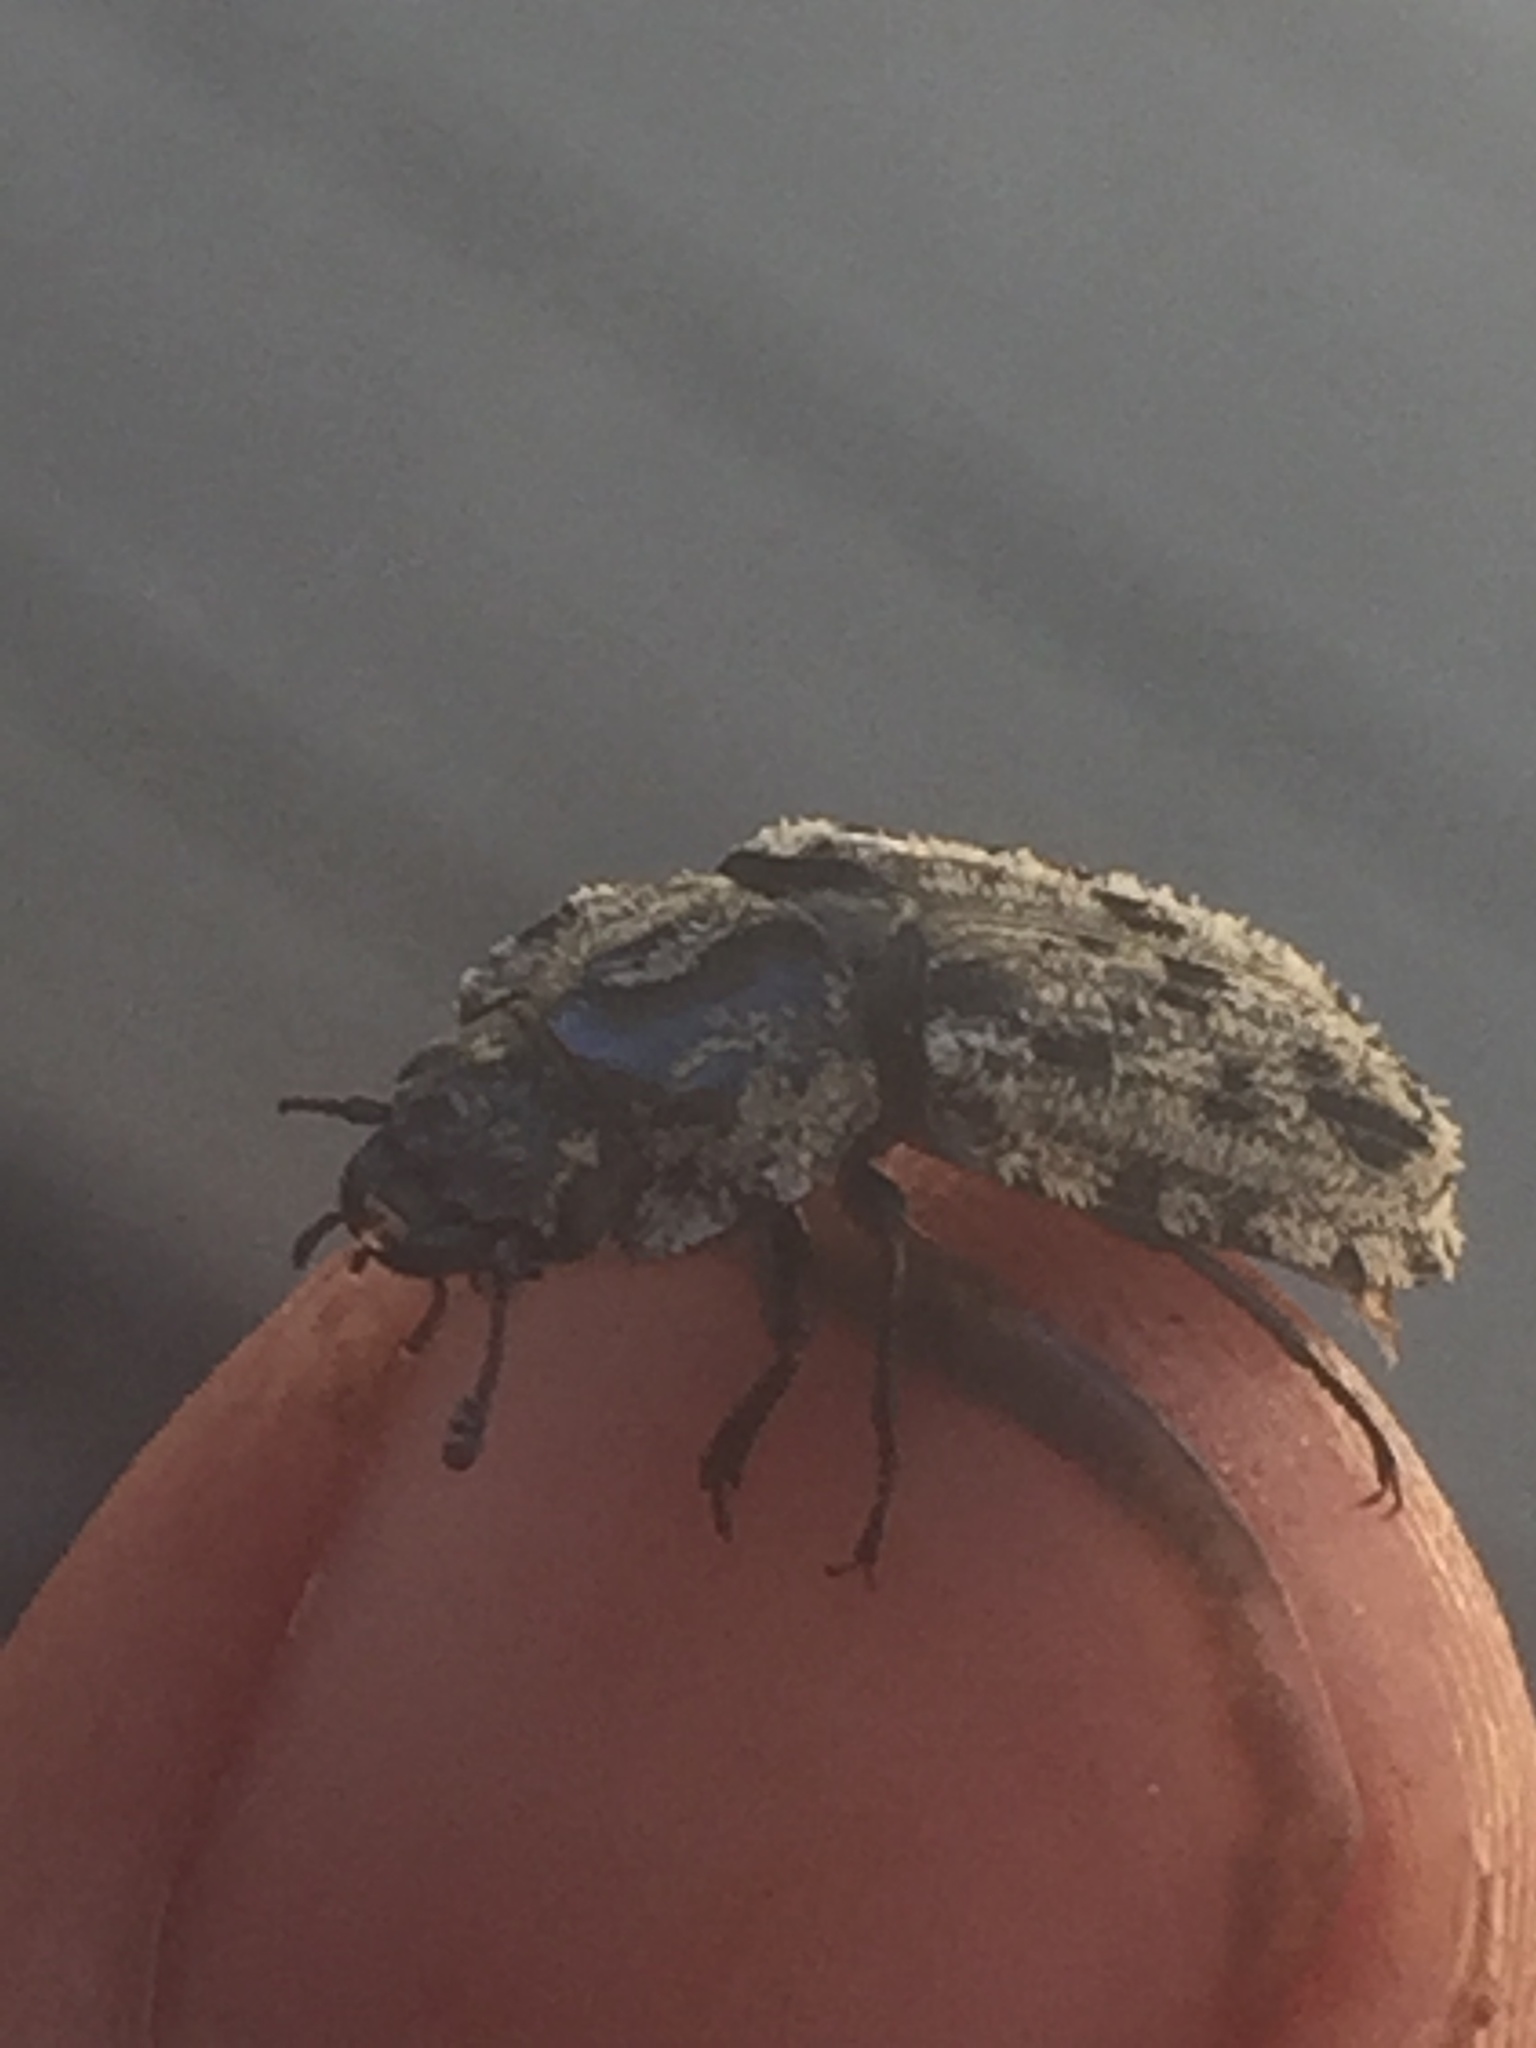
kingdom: Animalia
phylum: Arthropoda
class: Insecta
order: Coleoptera
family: Trogossitidae
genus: Phanodesta
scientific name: Phanodesta
